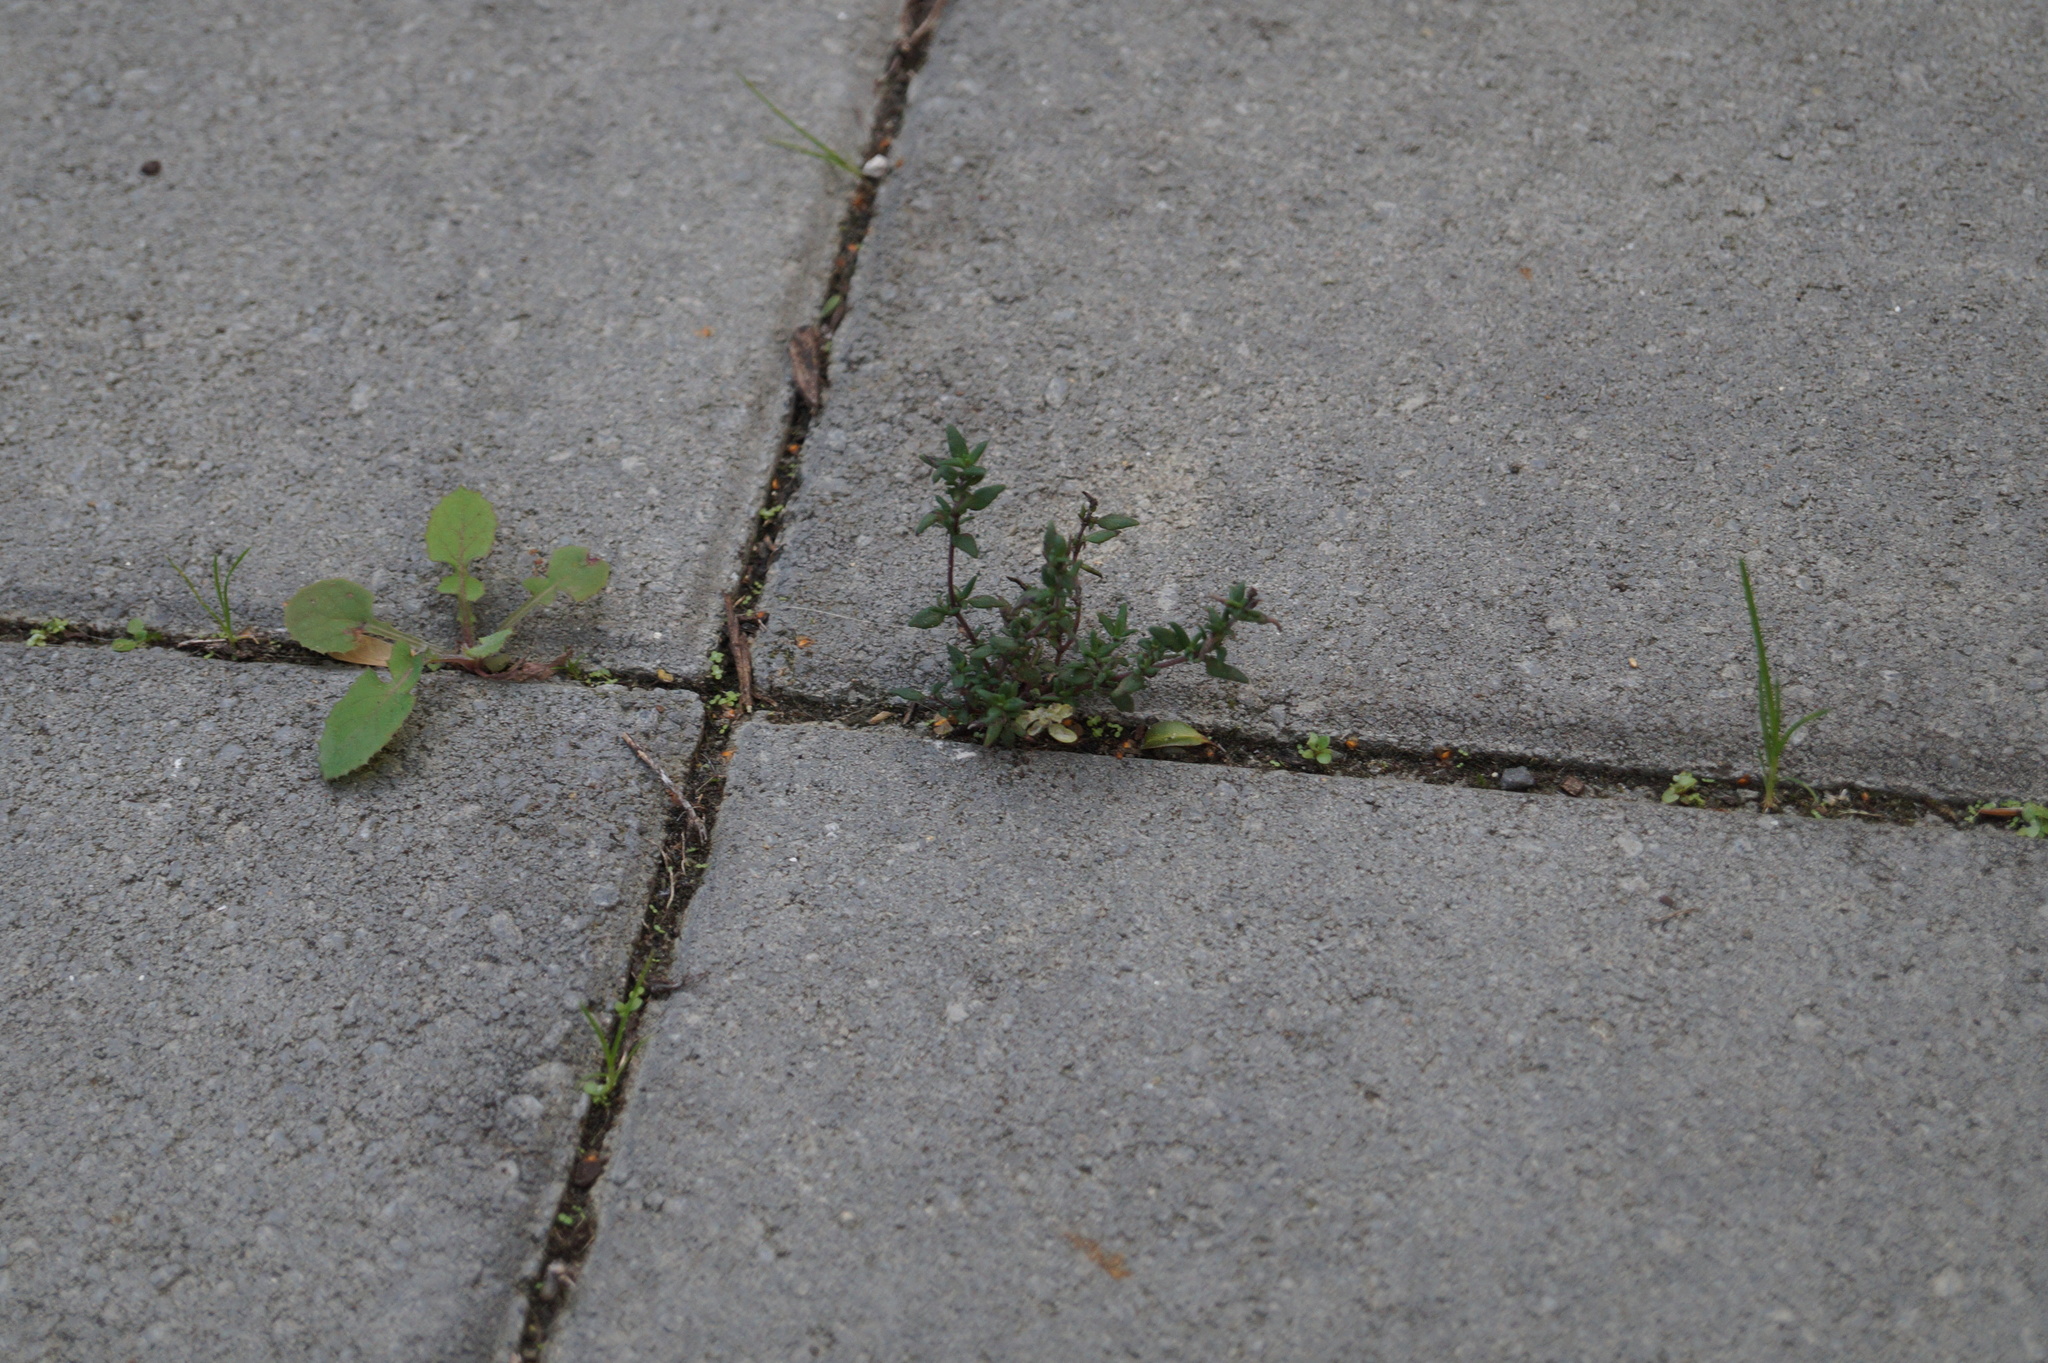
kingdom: Plantae
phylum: Tracheophyta
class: Magnoliopsida
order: Lamiales
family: Lamiaceae
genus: Thymus
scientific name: Thymus vulgaris
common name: Garden thyme
